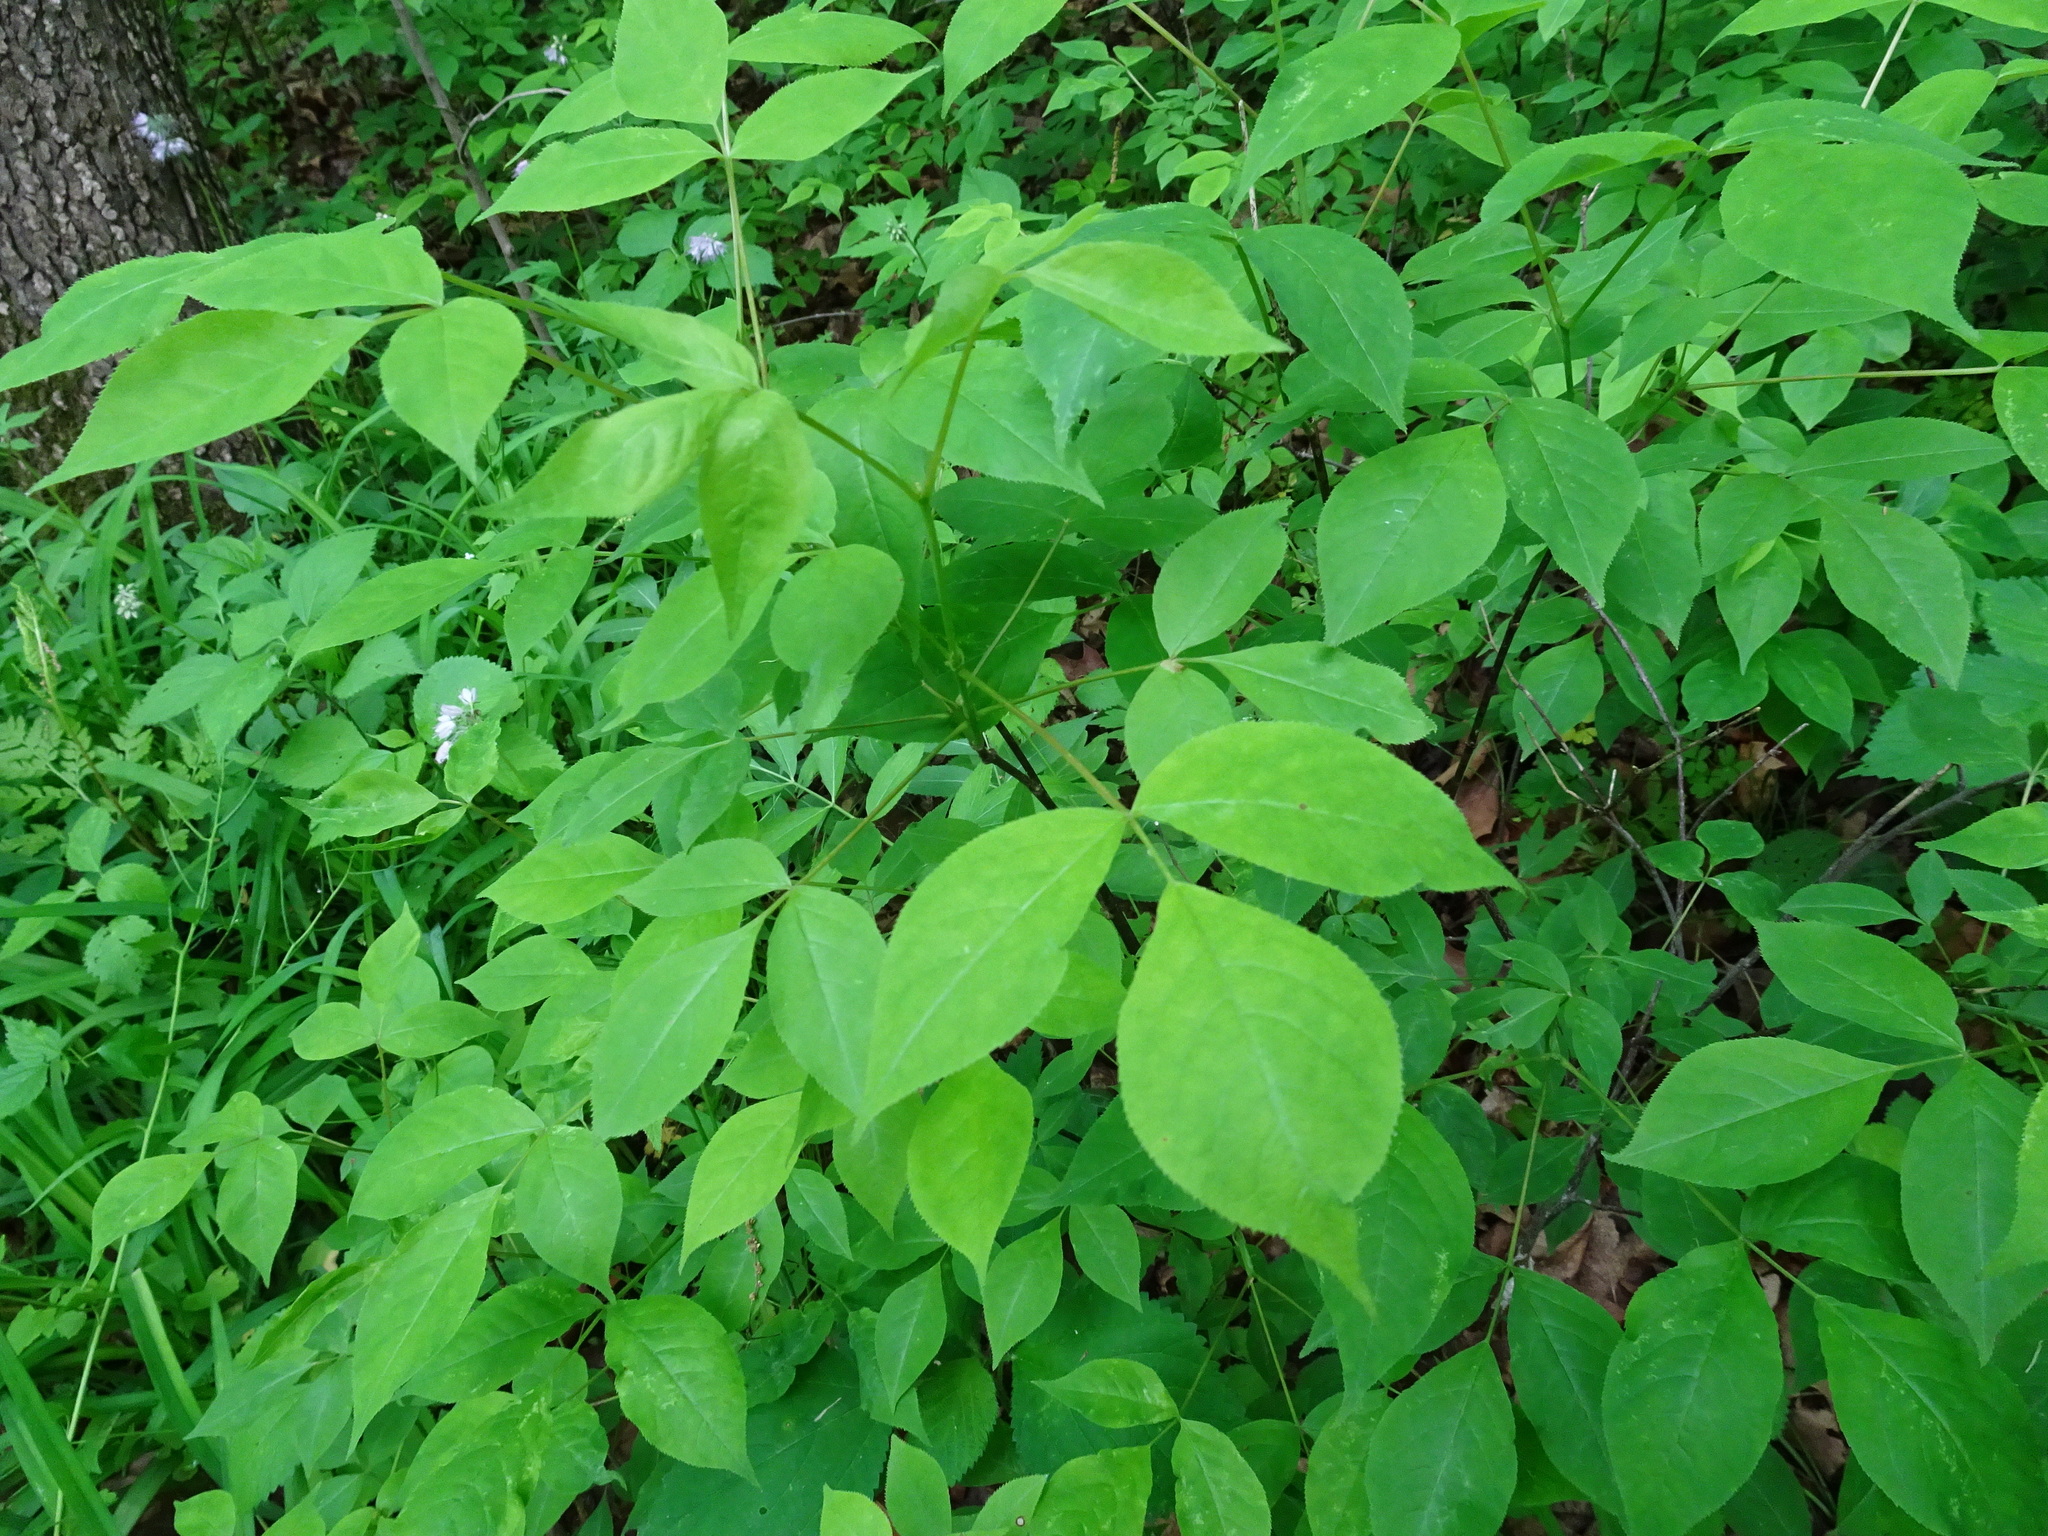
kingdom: Plantae
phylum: Tracheophyta
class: Magnoliopsida
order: Crossosomatales
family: Staphyleaceae
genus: Staphylea
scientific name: Staphylea trifolia
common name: American bladdernut
